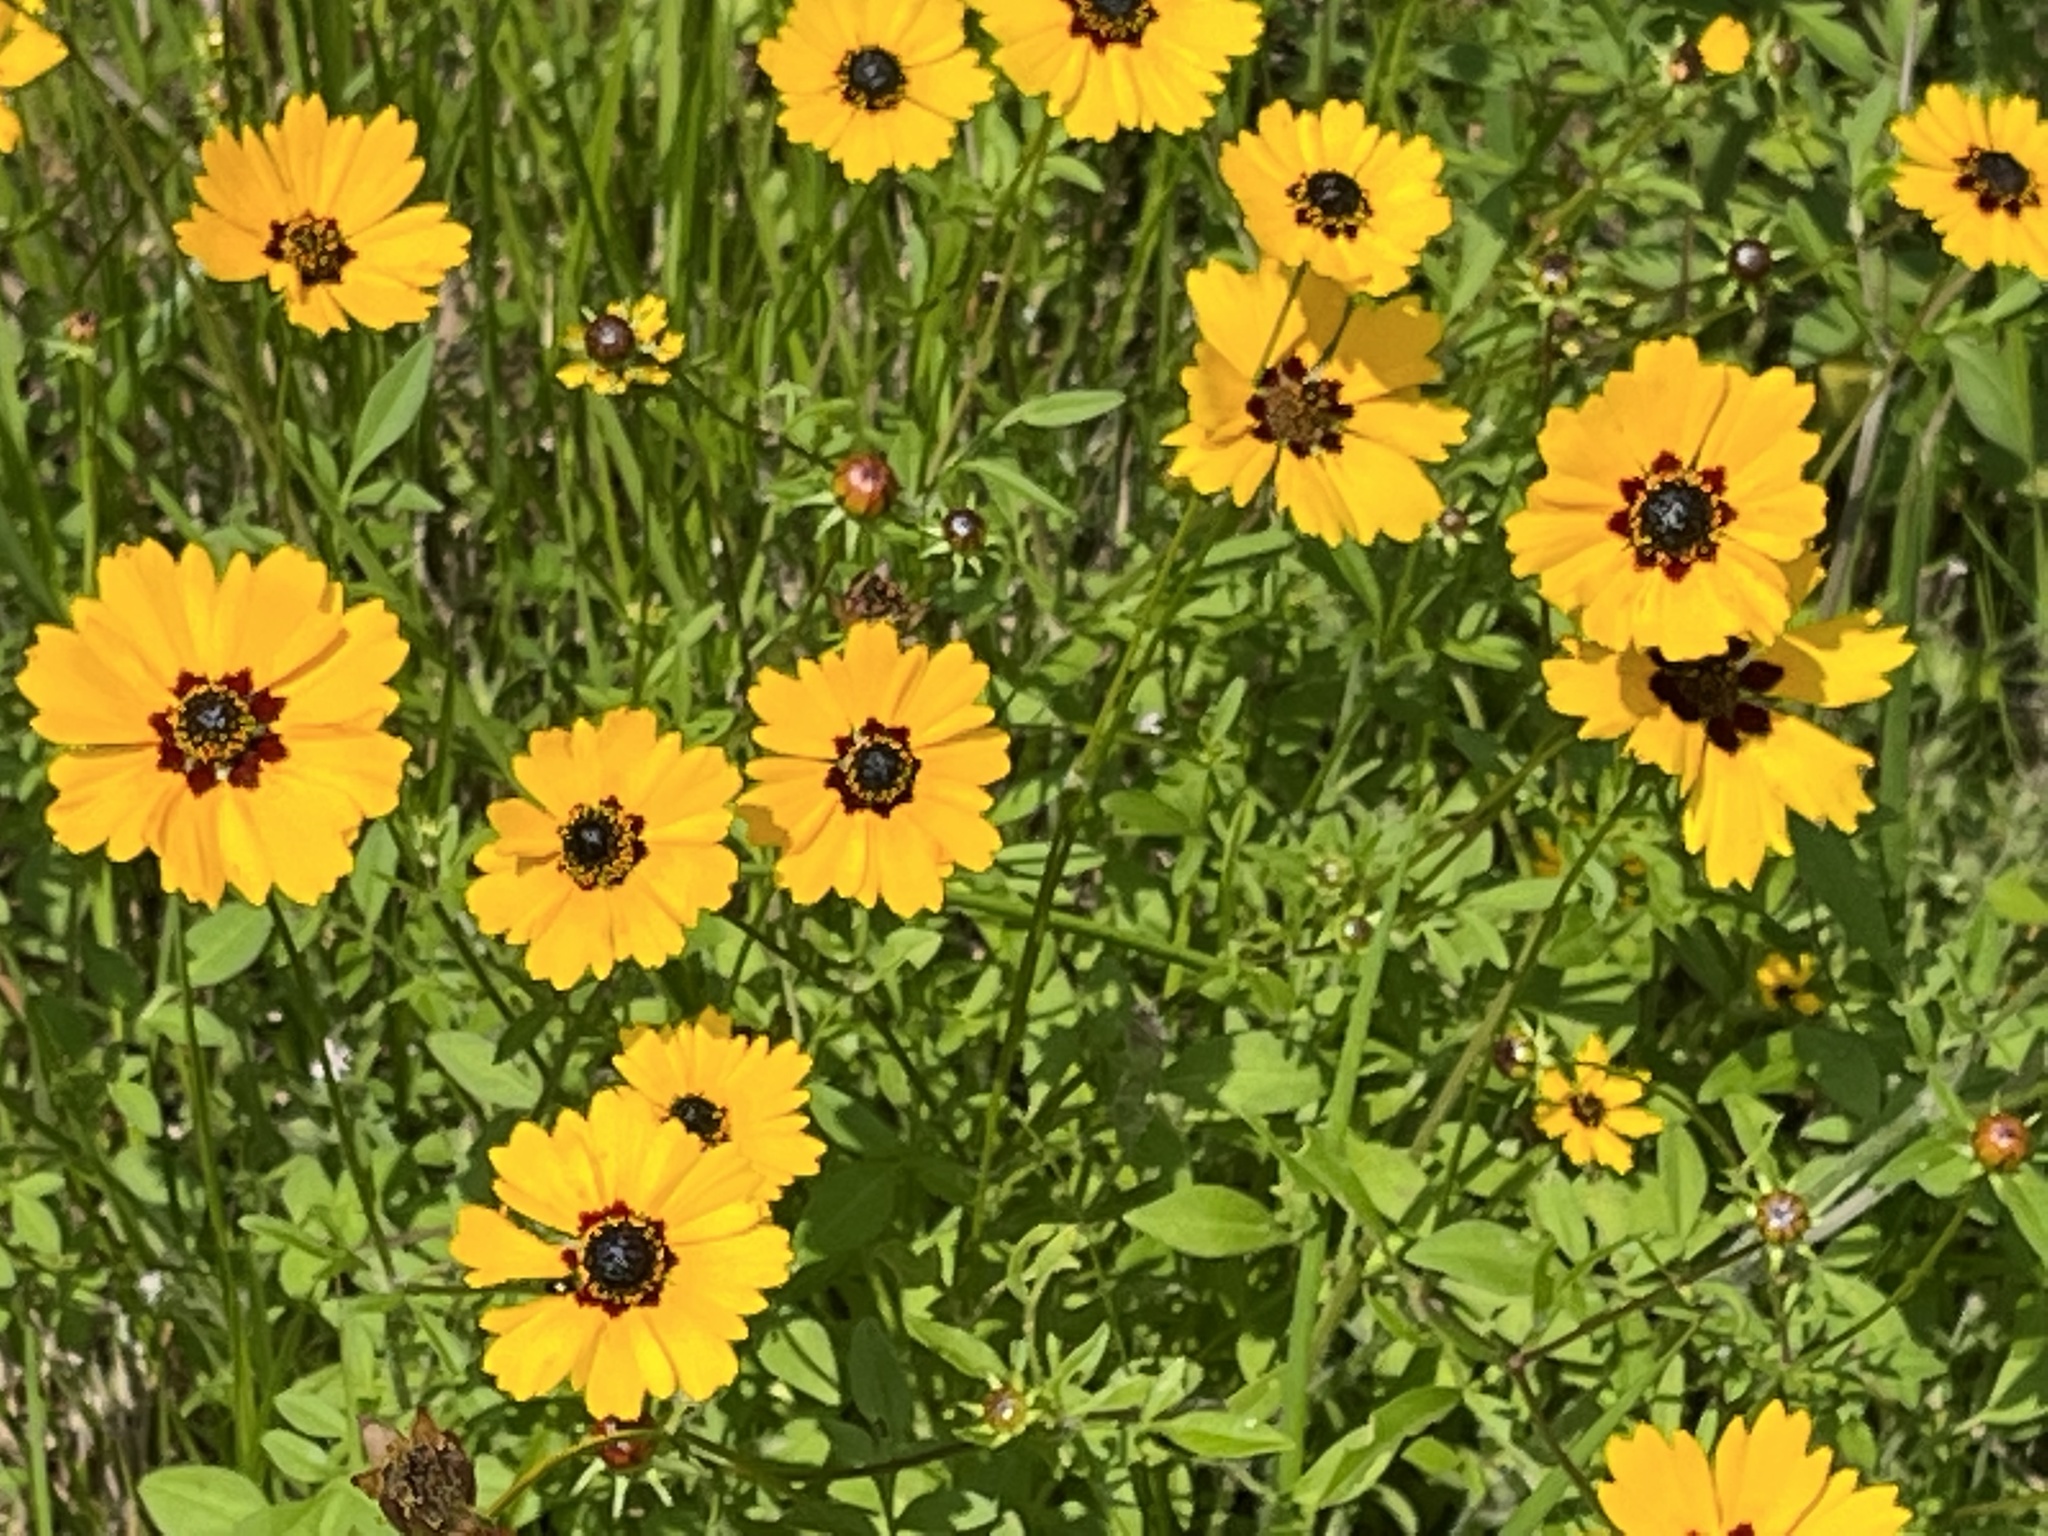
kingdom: Plantae
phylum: Tracheophyta
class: Magnoliopsida
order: Asterales
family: Asteraceae
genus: Coreopsis
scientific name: Coreopsis basalis
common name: Golden-mane coreopsis
